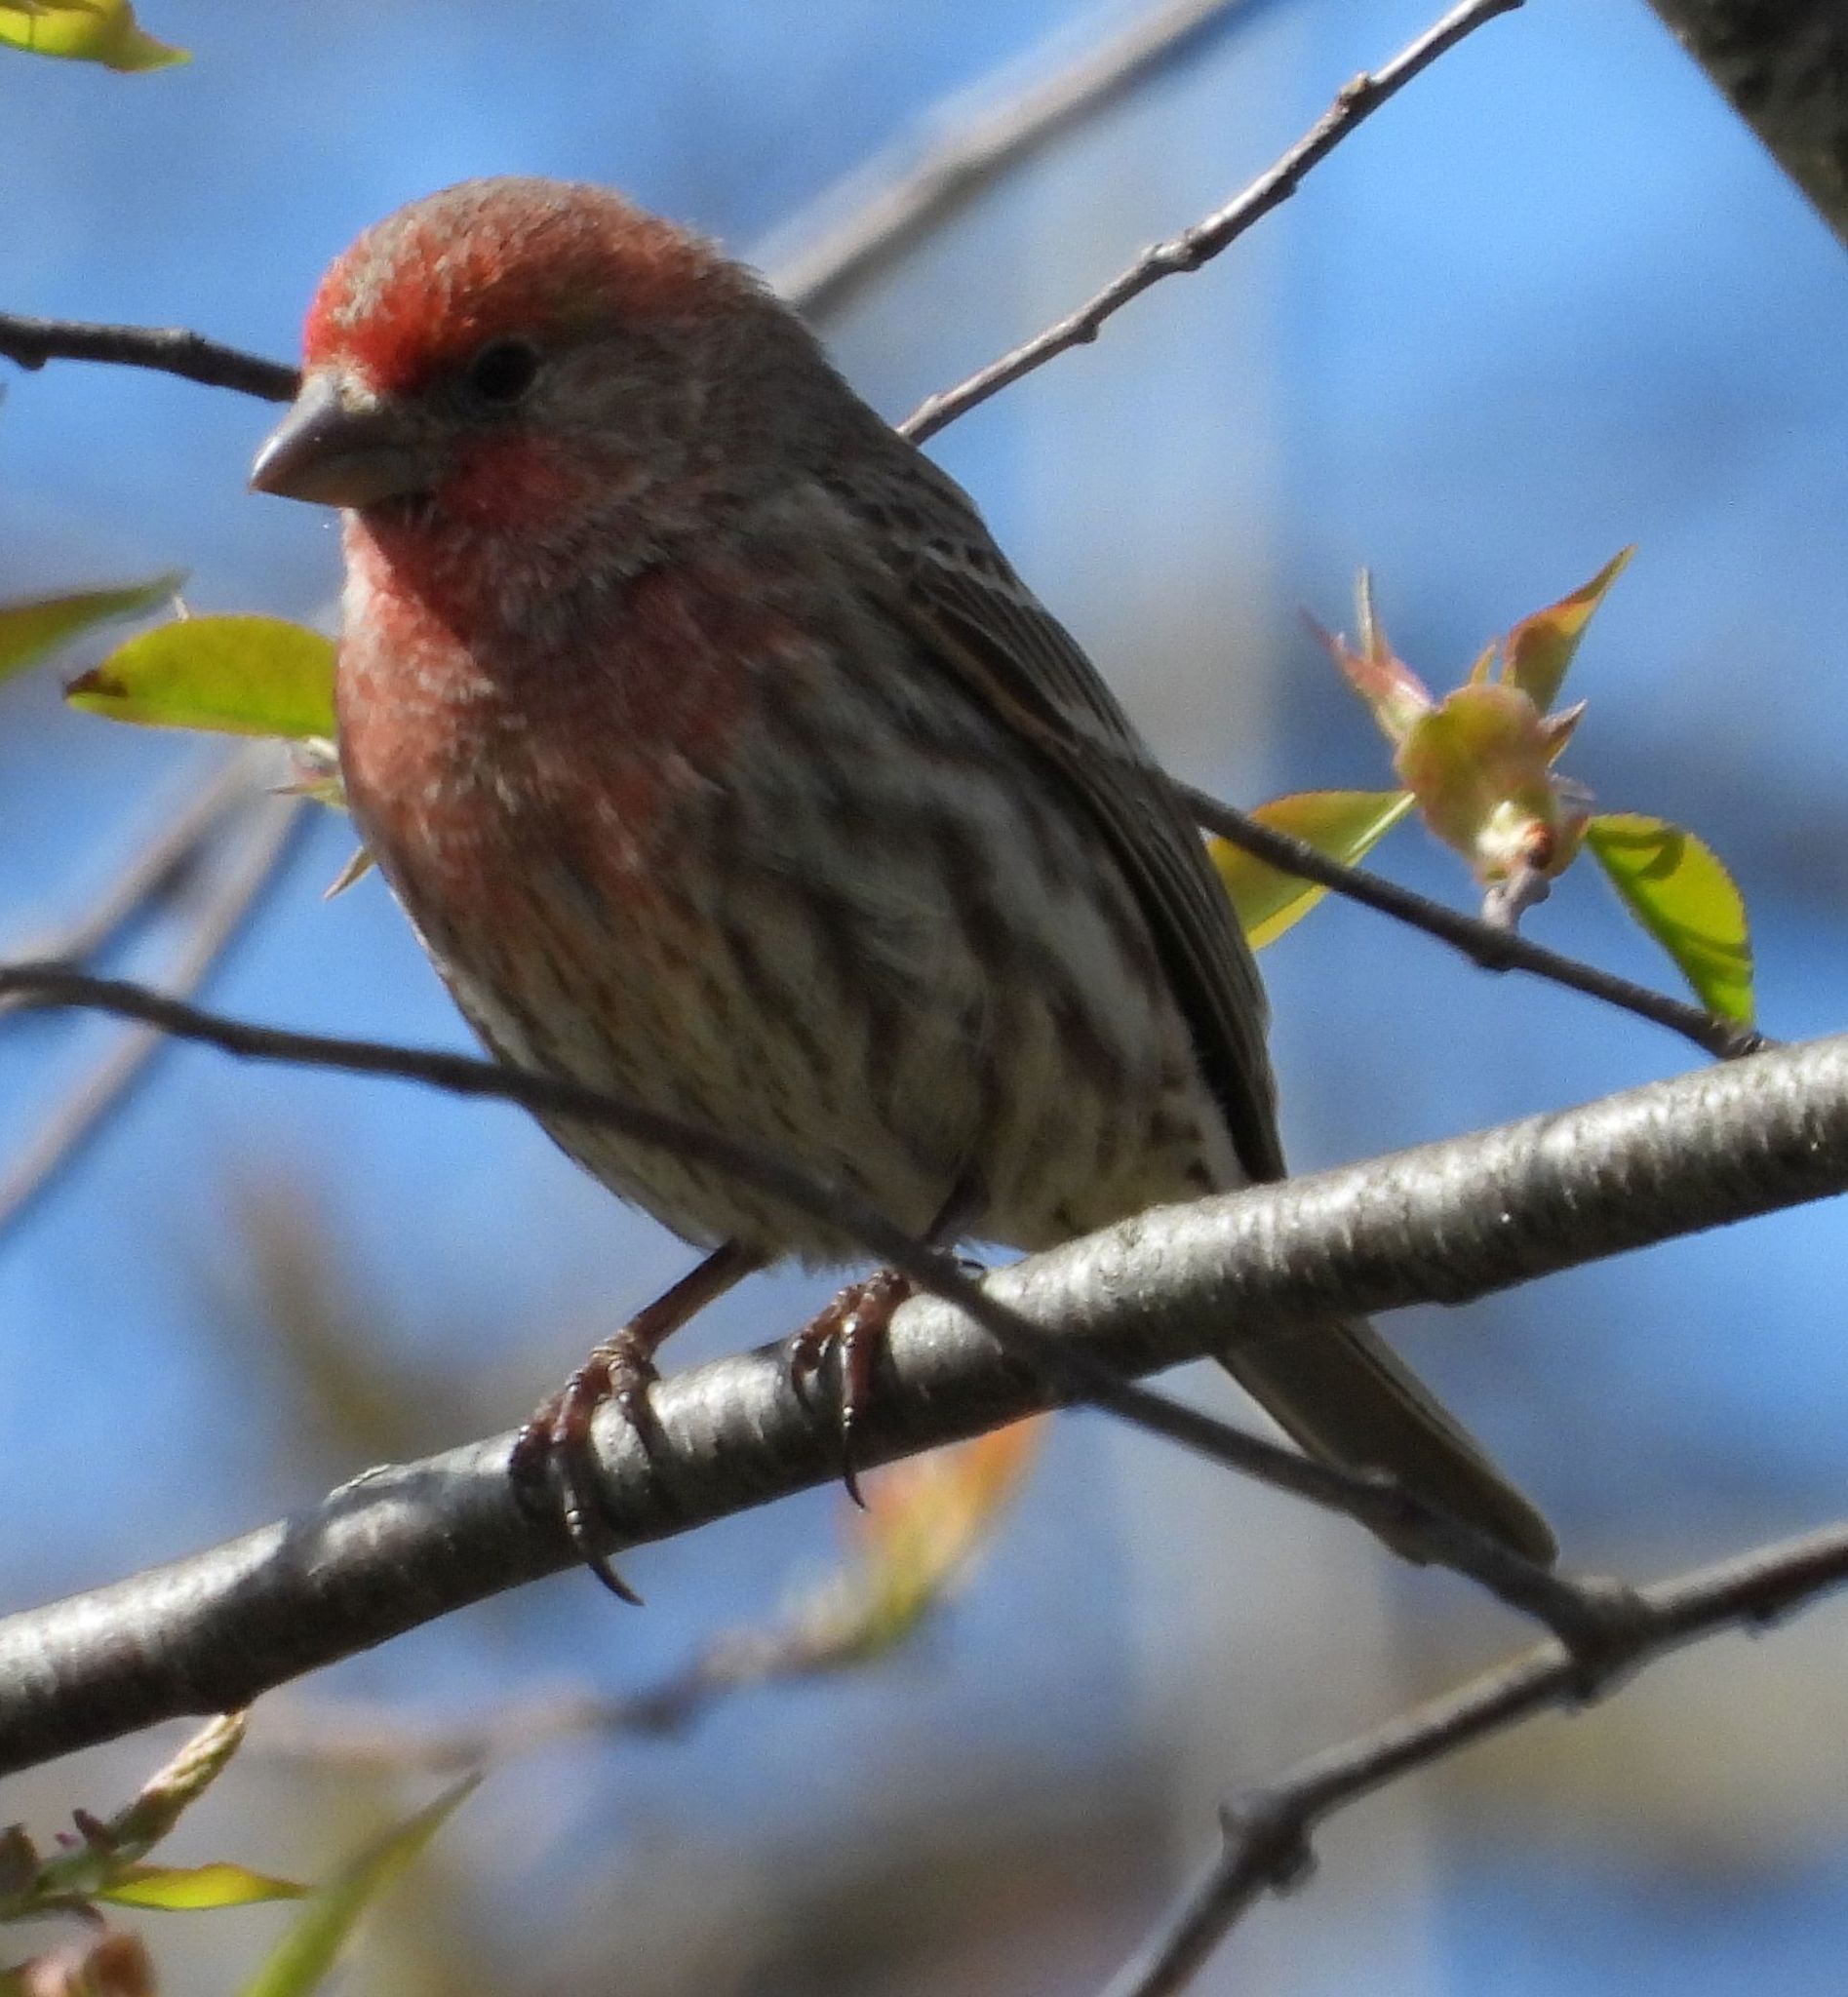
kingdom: Animalia
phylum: Chordata
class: Aves
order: Passeriformes
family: Fringillidae
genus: Haemorhous
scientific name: Haemorhous mexicanus
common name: House finch
